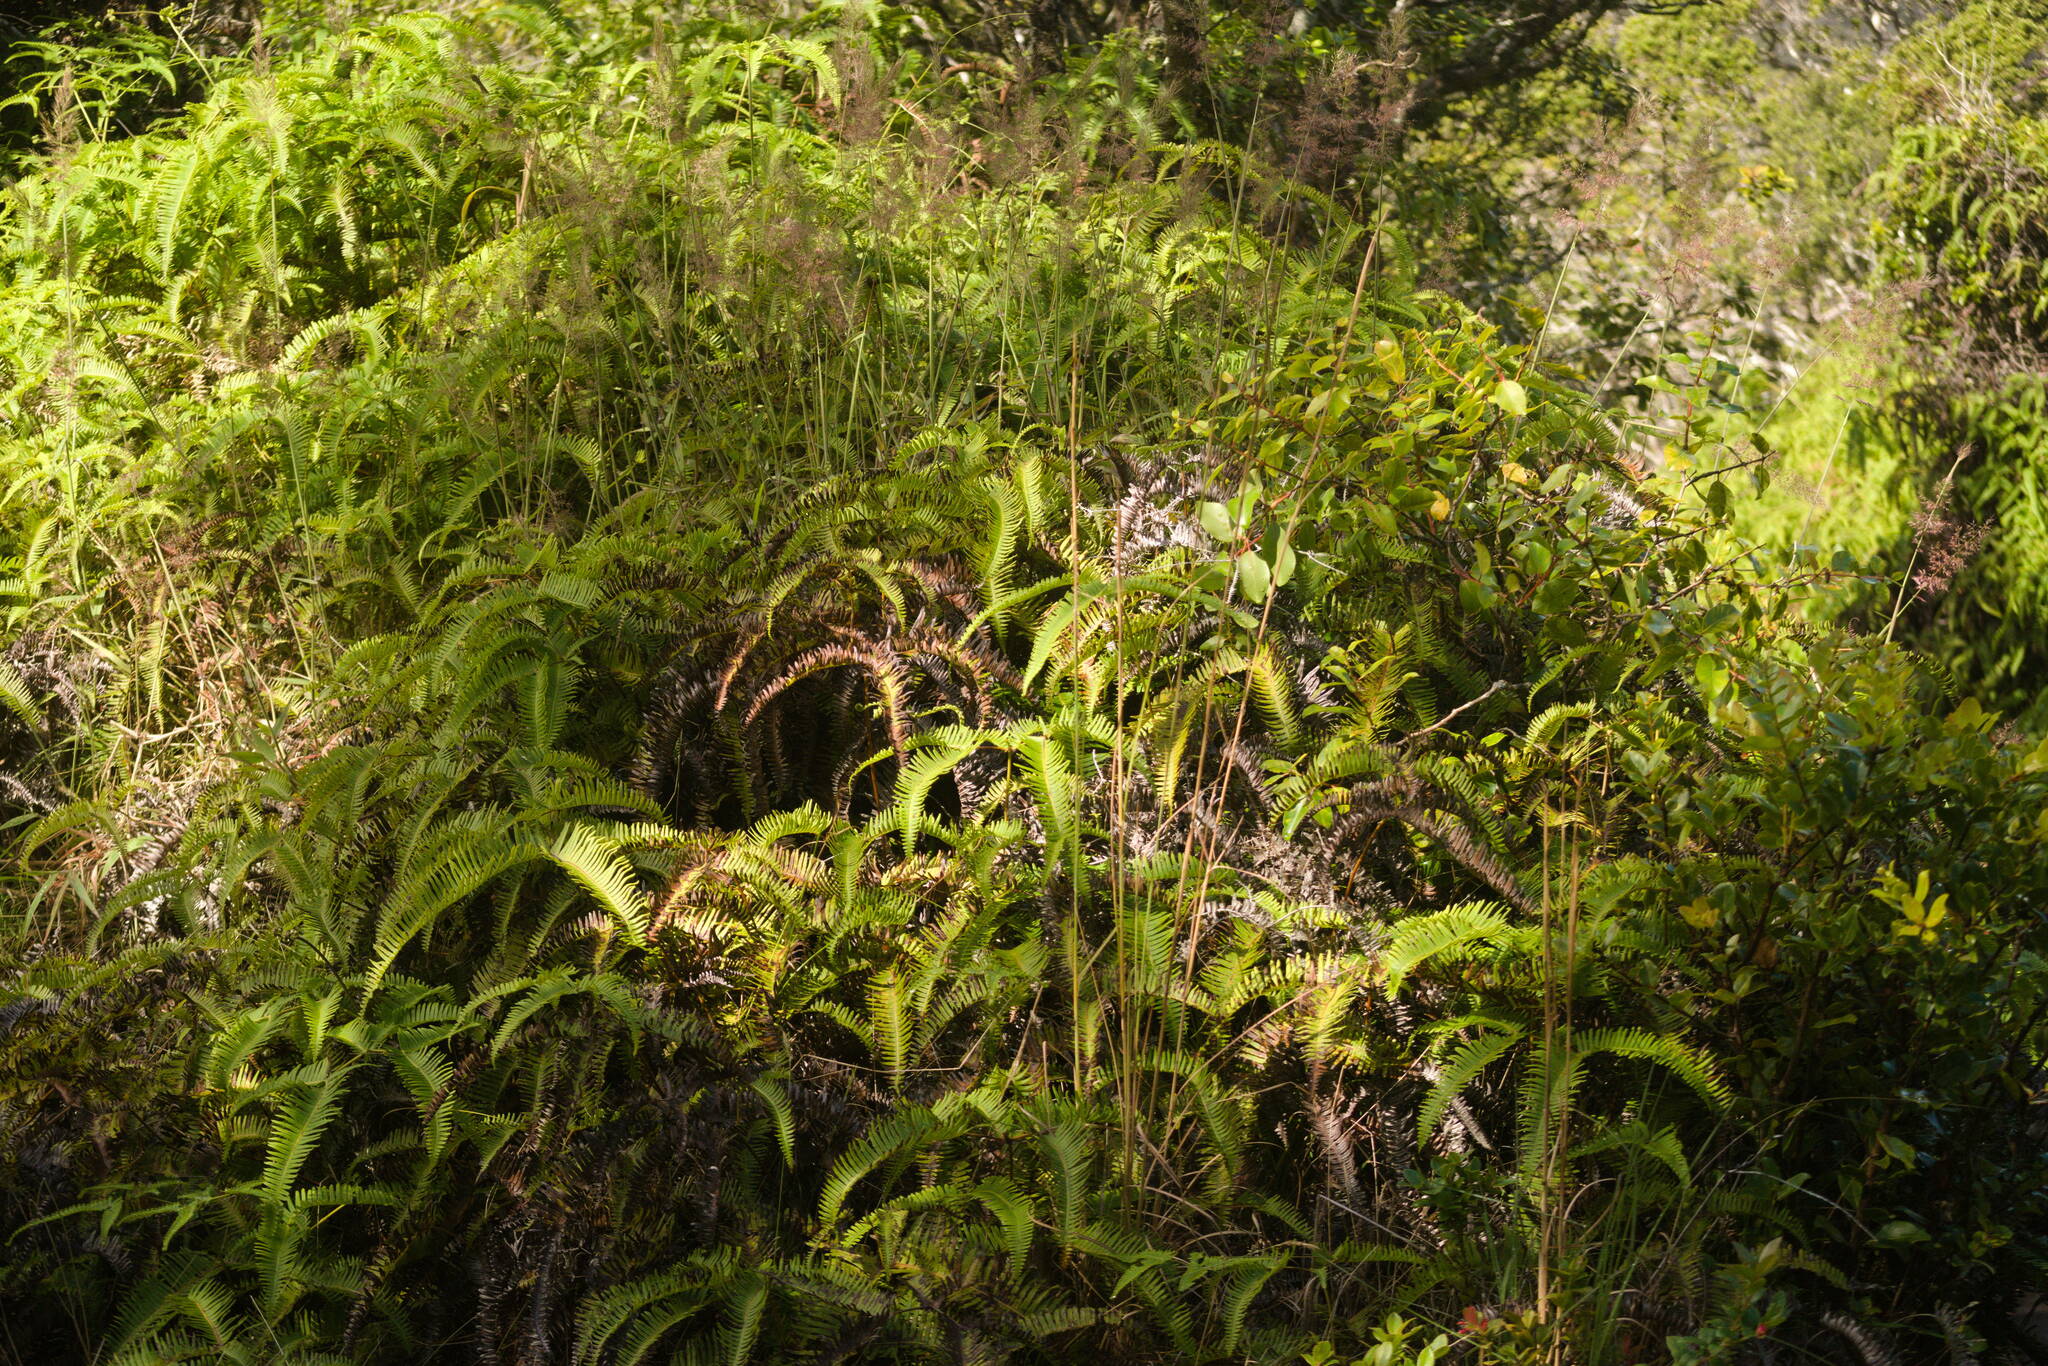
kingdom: Plantae
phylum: Tracheophyta
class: Polypodiopsida
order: Gleicheniales
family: Gleicheniaceae
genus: Dicranopteris
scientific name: Dicranopteris linearis
